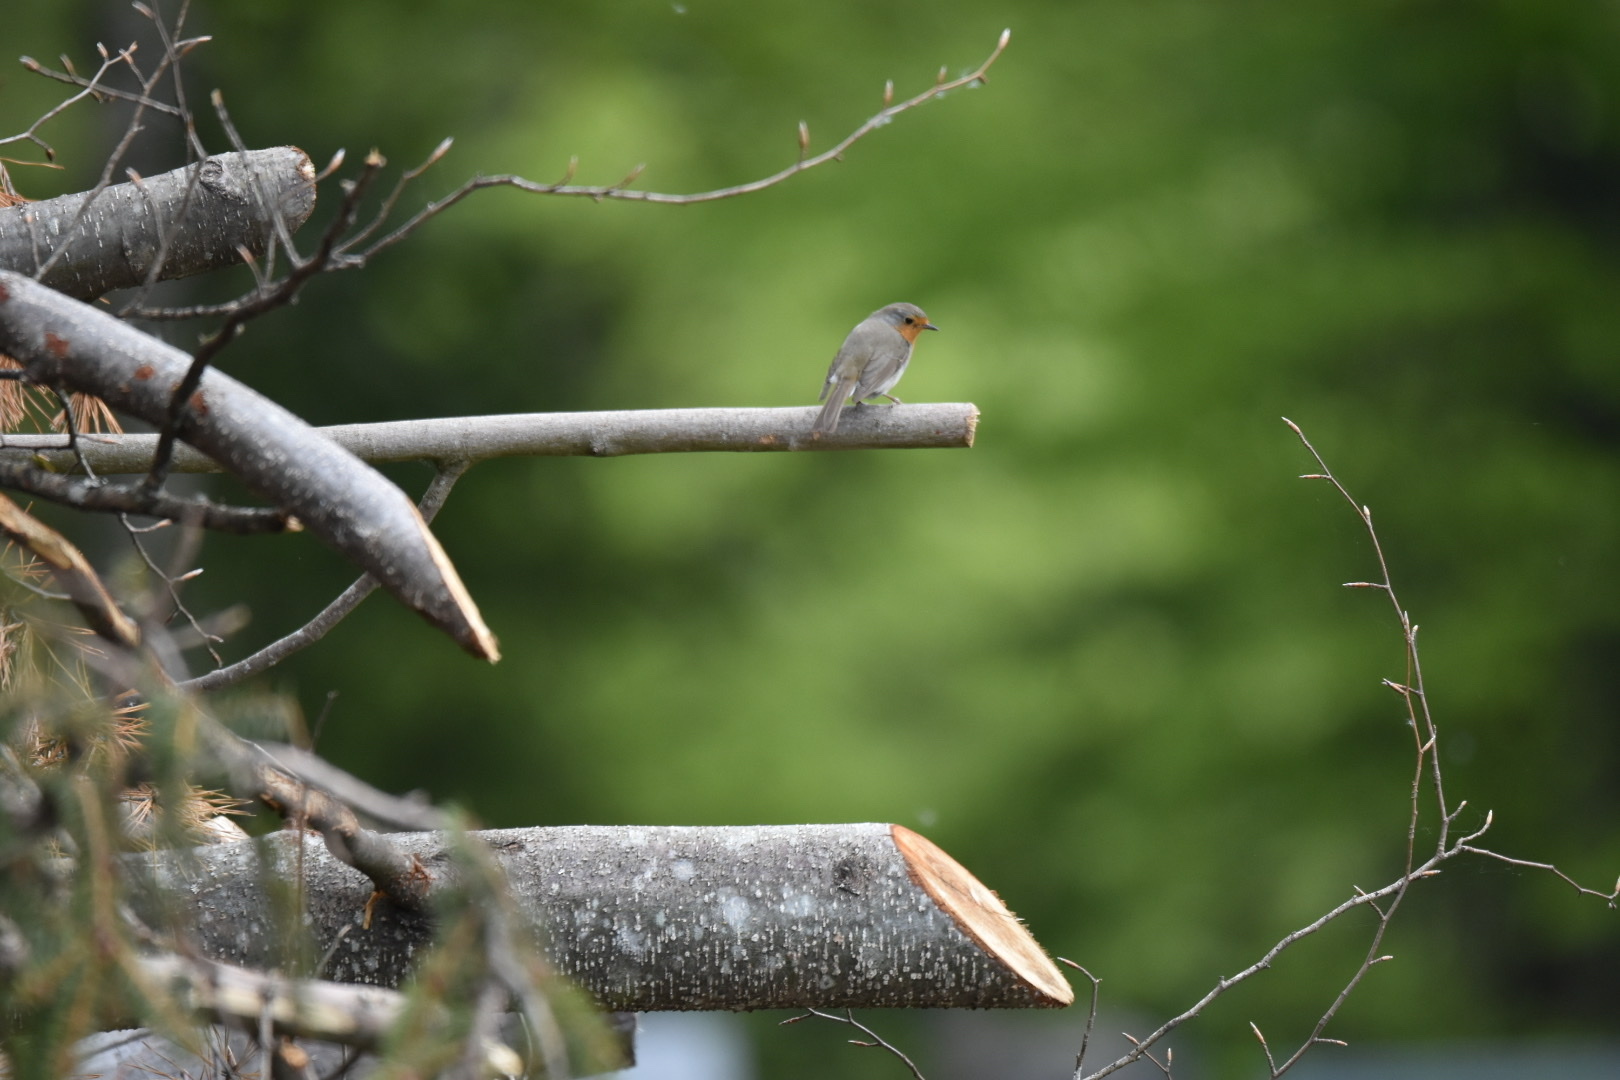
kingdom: Animalia
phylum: Chordata
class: Aves
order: Passeriformes
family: Muscicapidae
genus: Erithacus
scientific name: Erithacus rubecula
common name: European robin
